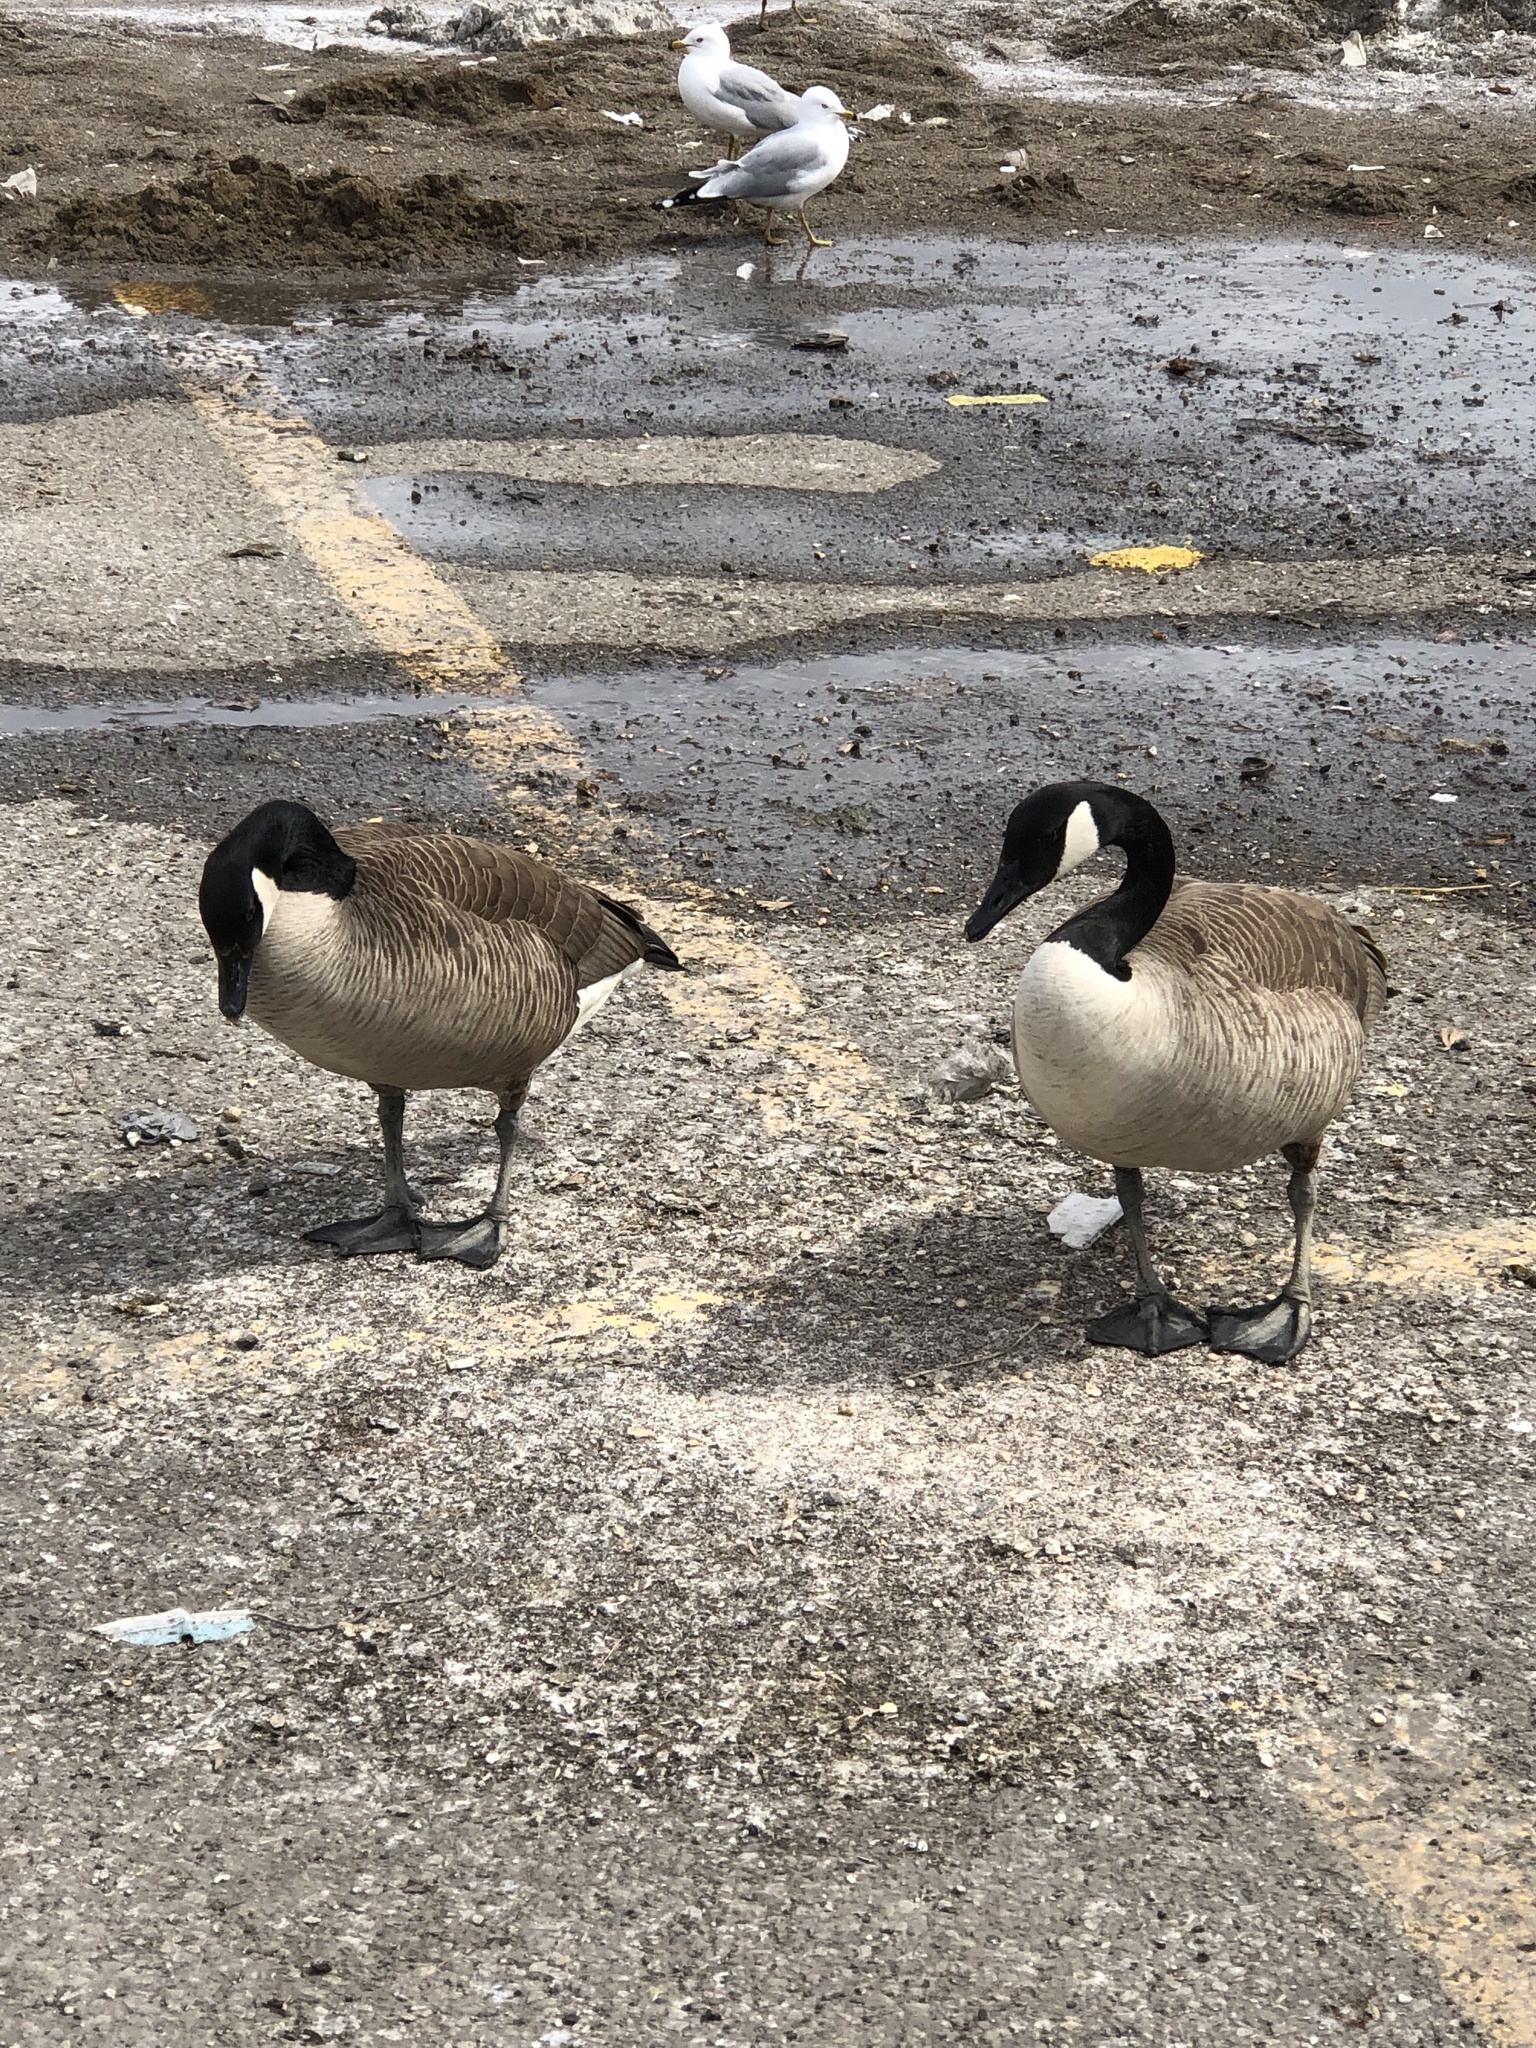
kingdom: Animalia
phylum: Chordata
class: Aves
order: Anseriformes
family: Anatidae
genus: Branta
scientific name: Branta canadensis
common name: Canada goose
